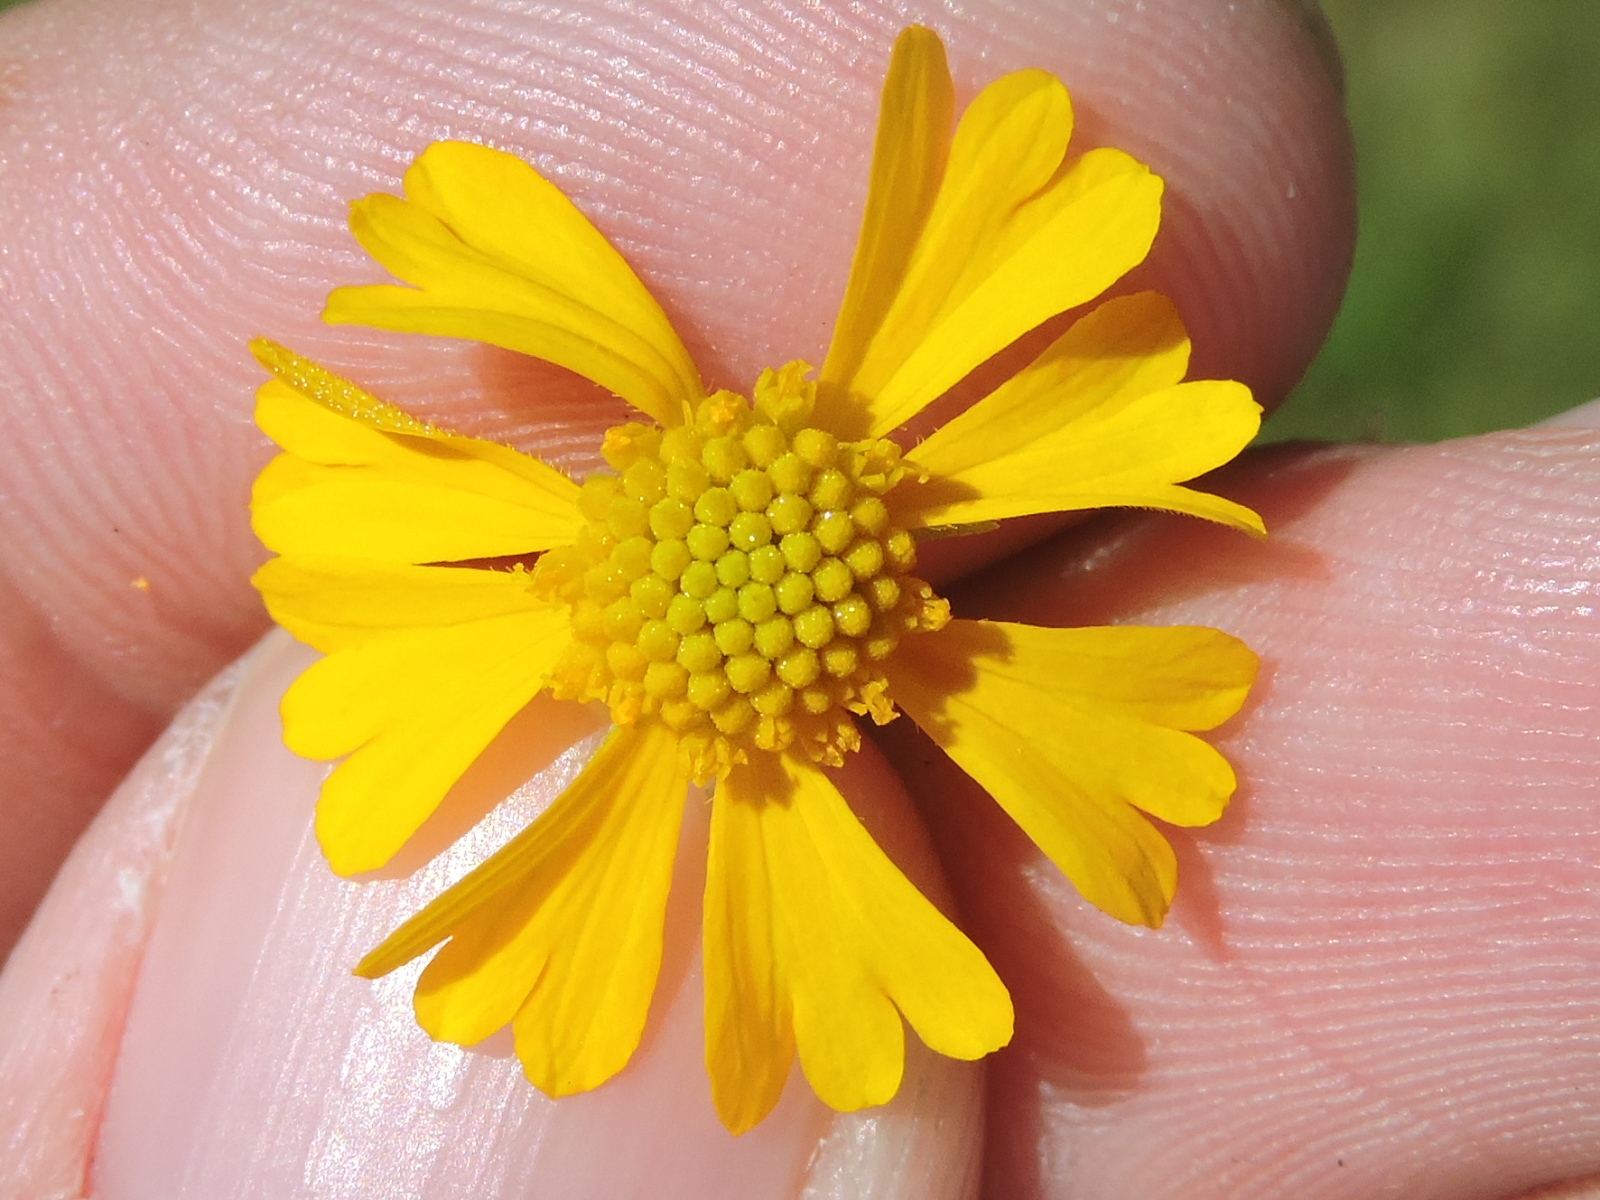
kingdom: Plantae
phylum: Tracheophyta
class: Magnoliopsida
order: Asterales
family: Asteraceae
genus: Helenium
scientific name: Helenium amarum
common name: Bitter sneezeweed
